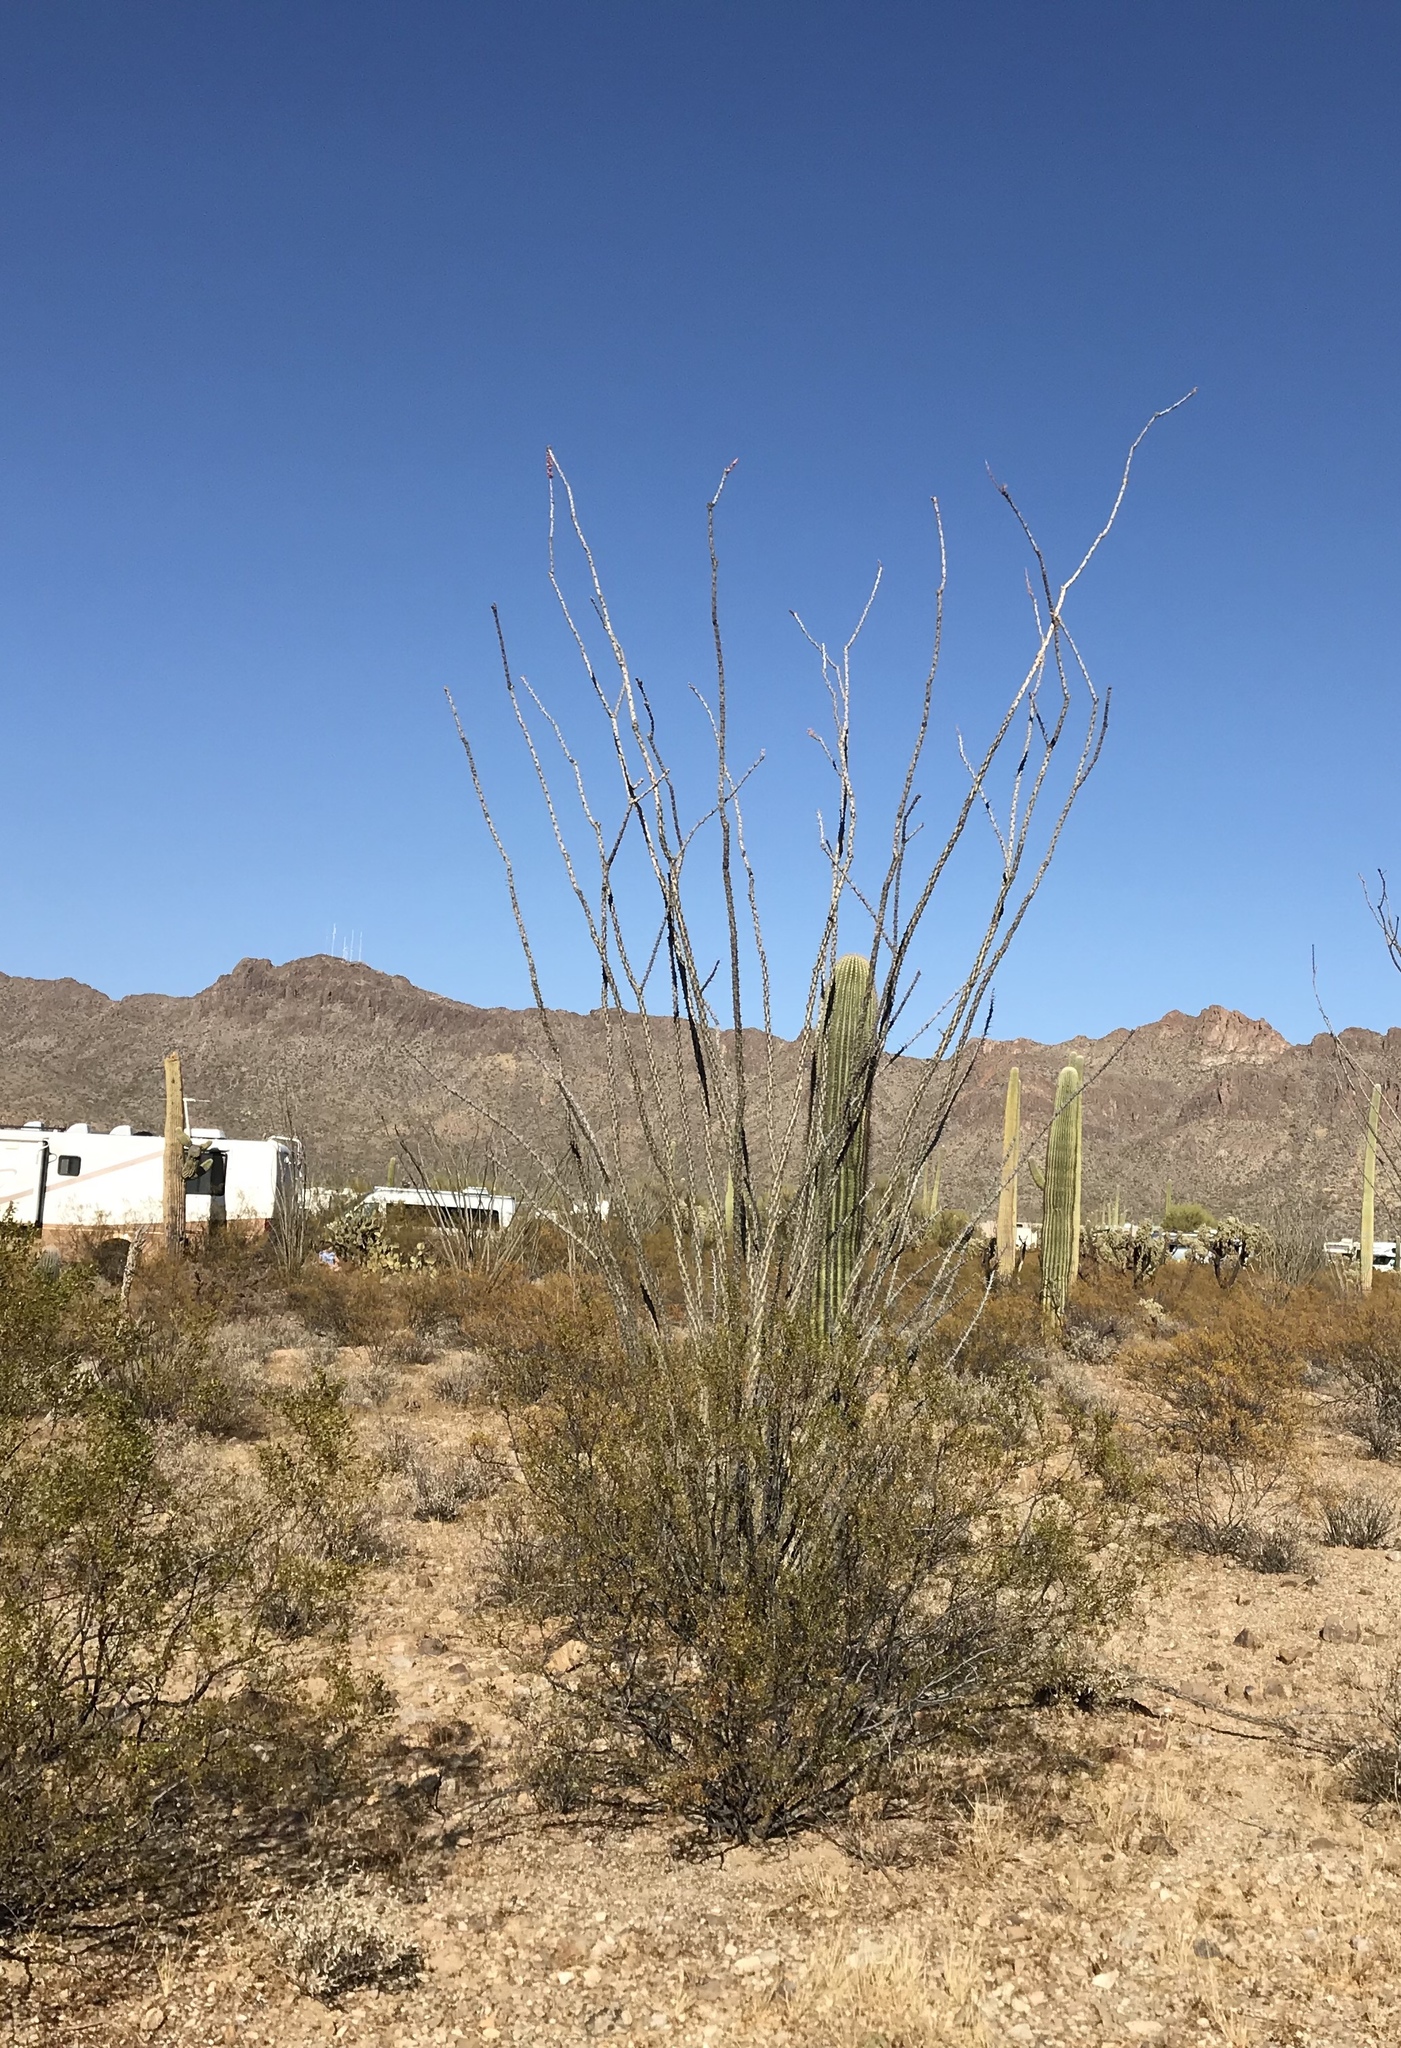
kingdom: Plantae
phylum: Tracheophyta
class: Magnoliopsida
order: Ericales
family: Fouquieriaceae
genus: Fouquieria
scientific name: Fouquieria splendens
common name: Vine-cactus
